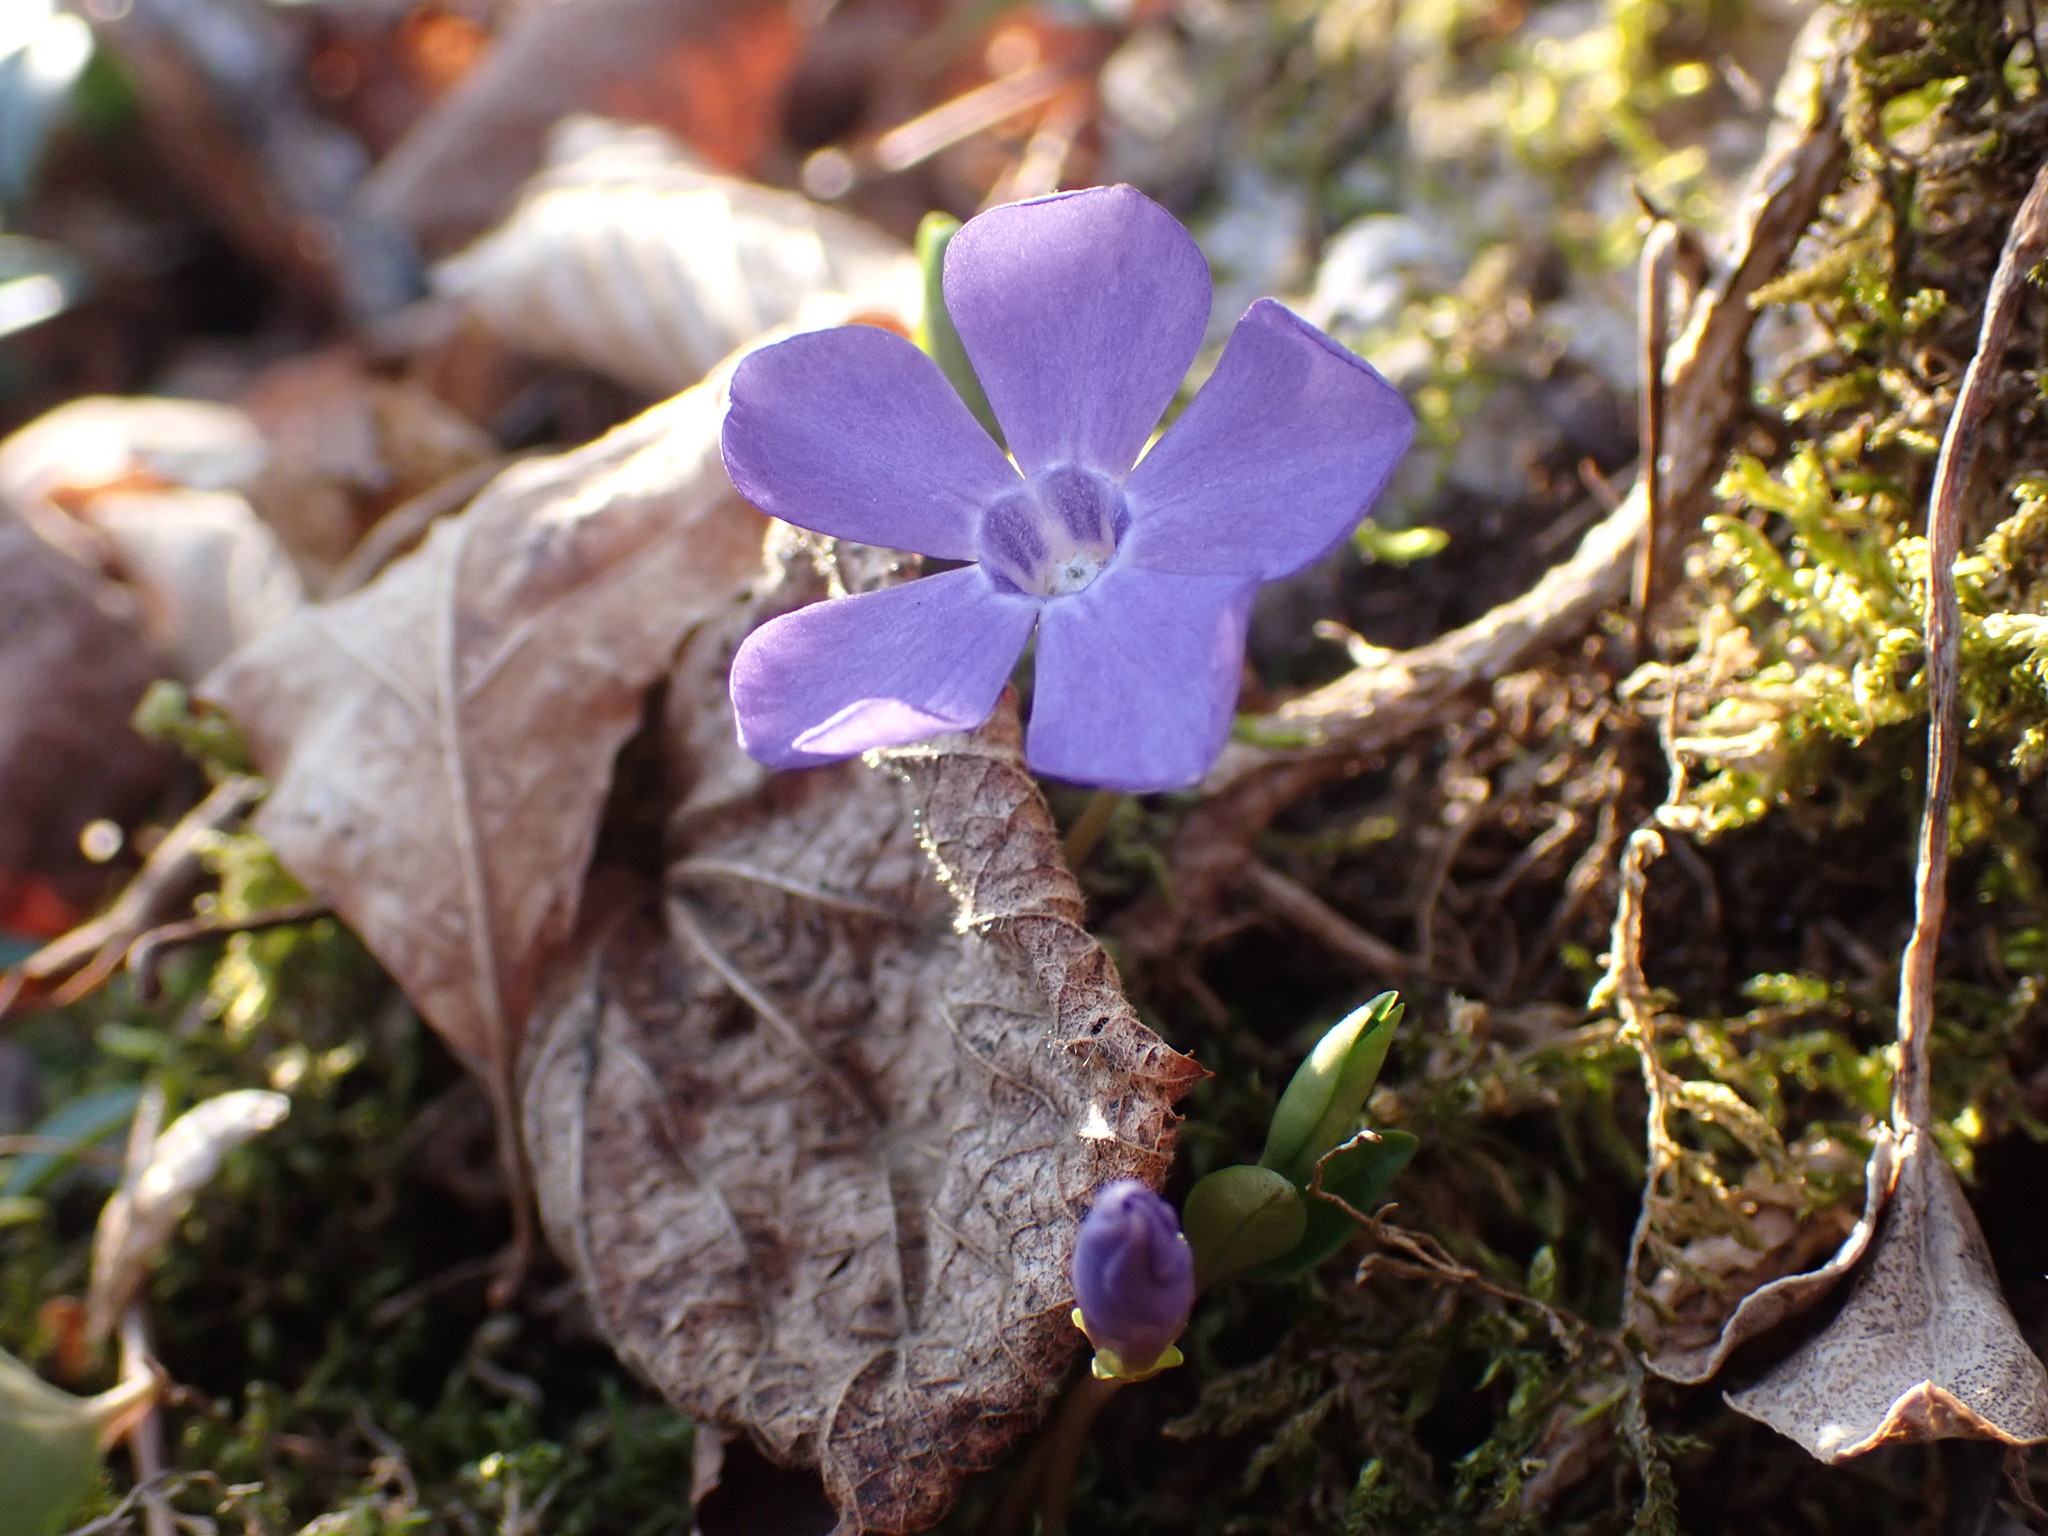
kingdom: Plantae
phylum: Tracheophyta
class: Magnoliopsida
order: Gentianales
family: Apocynaceae
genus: Vinca
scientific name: Vinca minor
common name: Lesser periwinkle
